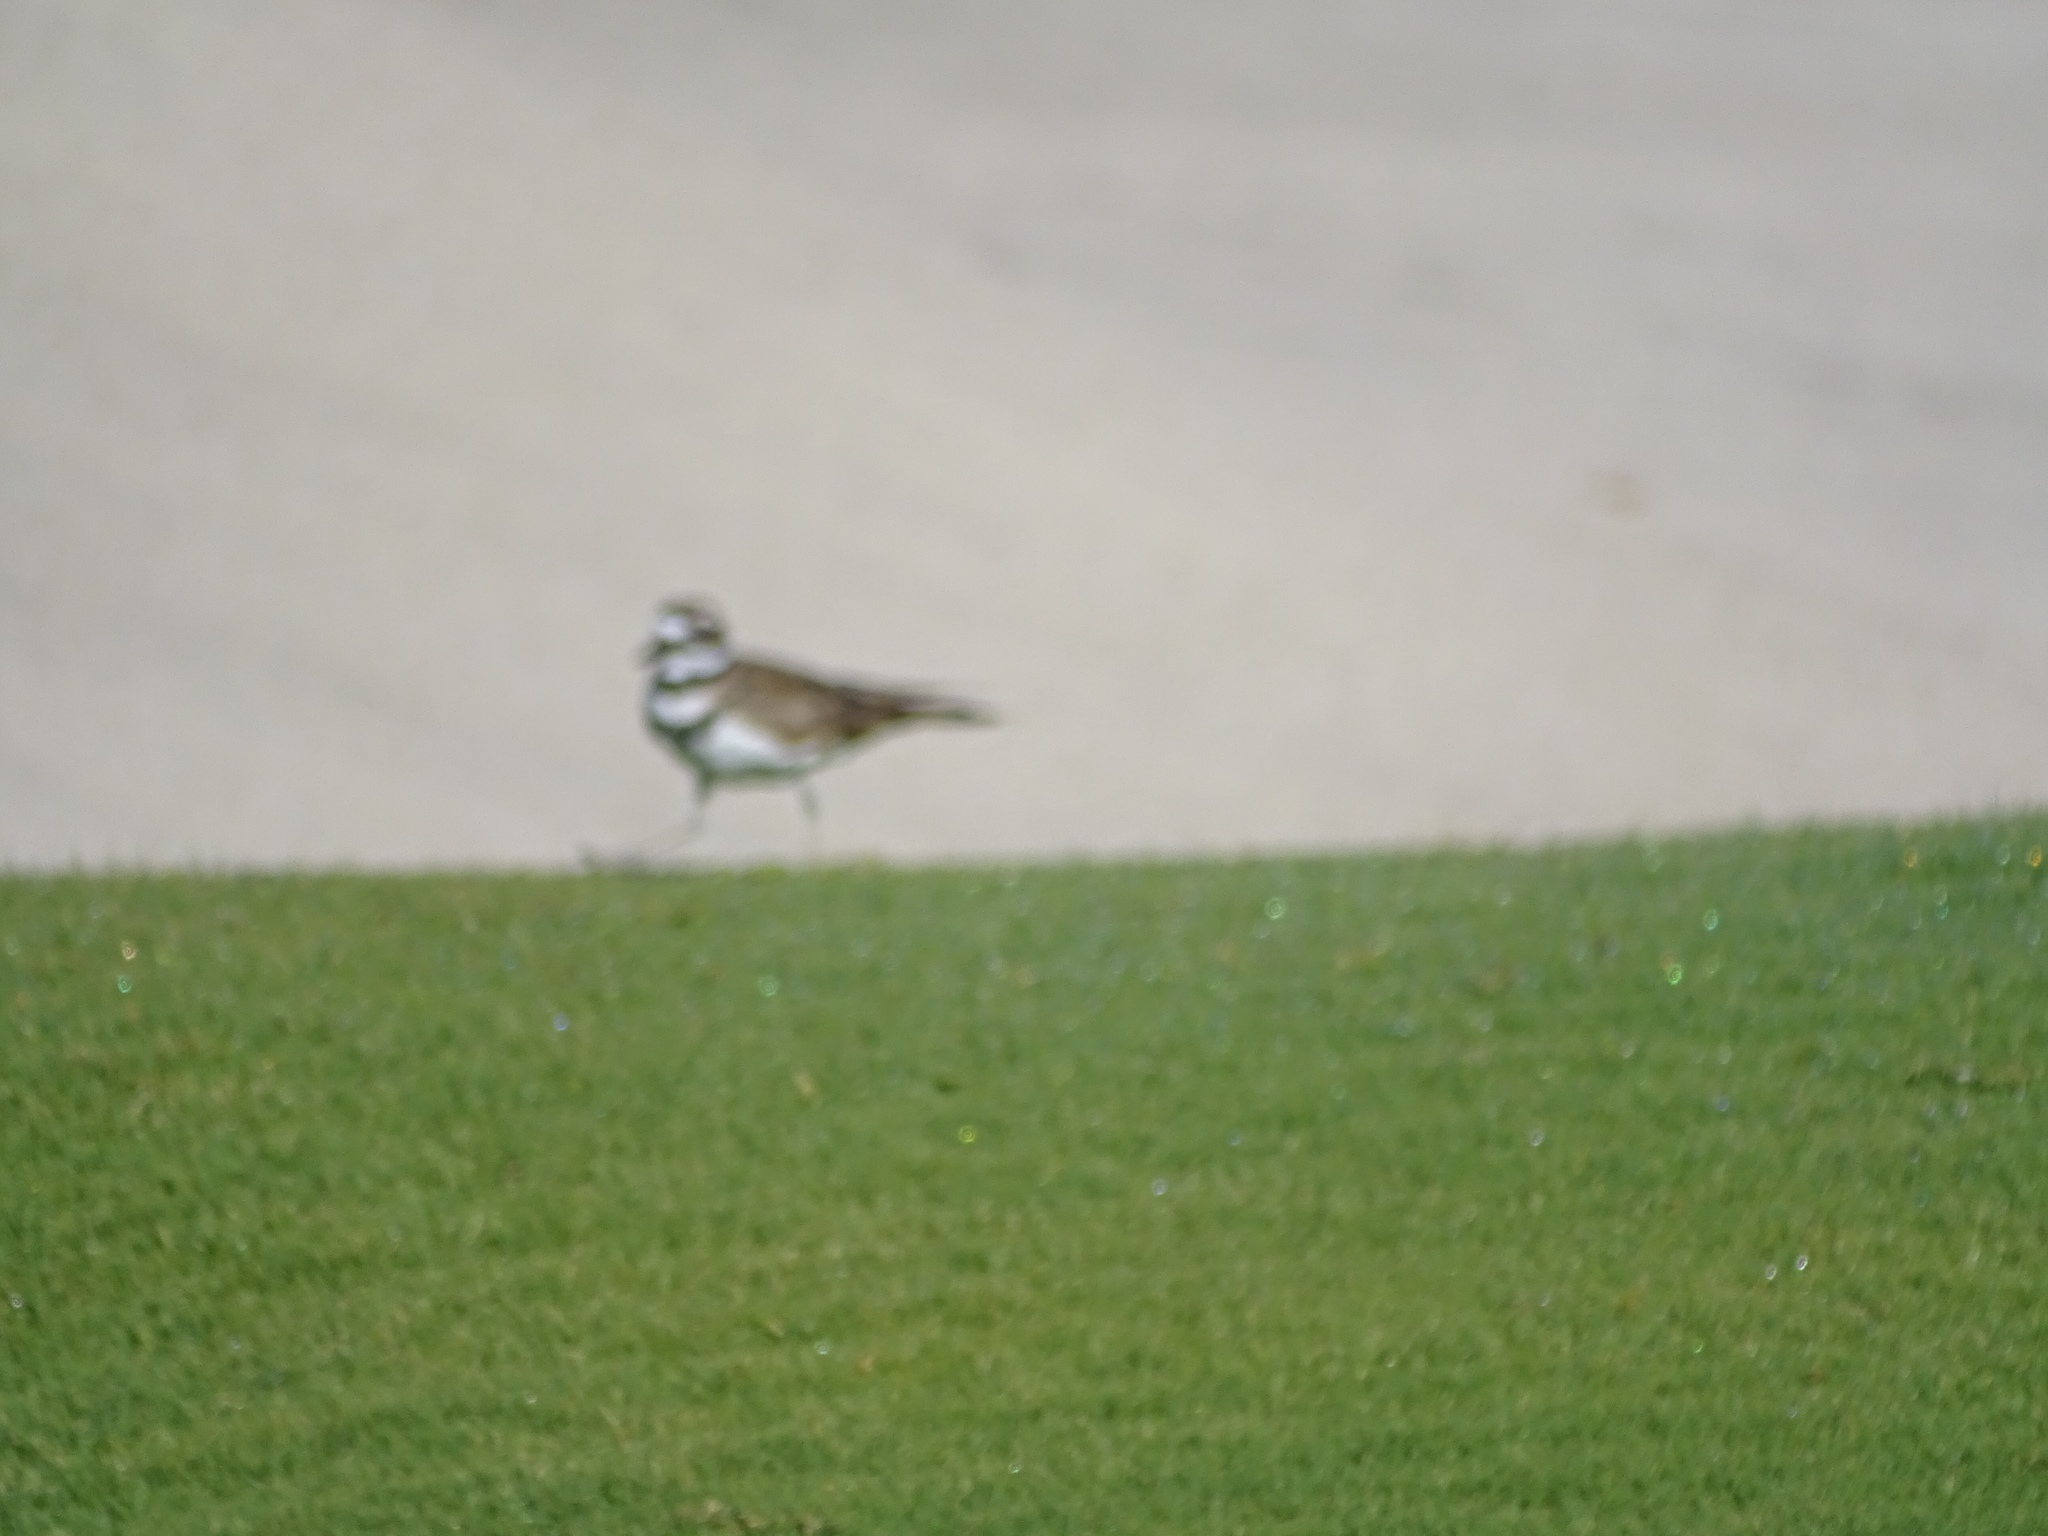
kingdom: Animalia
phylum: Chordata
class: Aves
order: Charadriiformes
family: Charadriidae
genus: Charadrius
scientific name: Charadrius vociferus
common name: Killdeer
